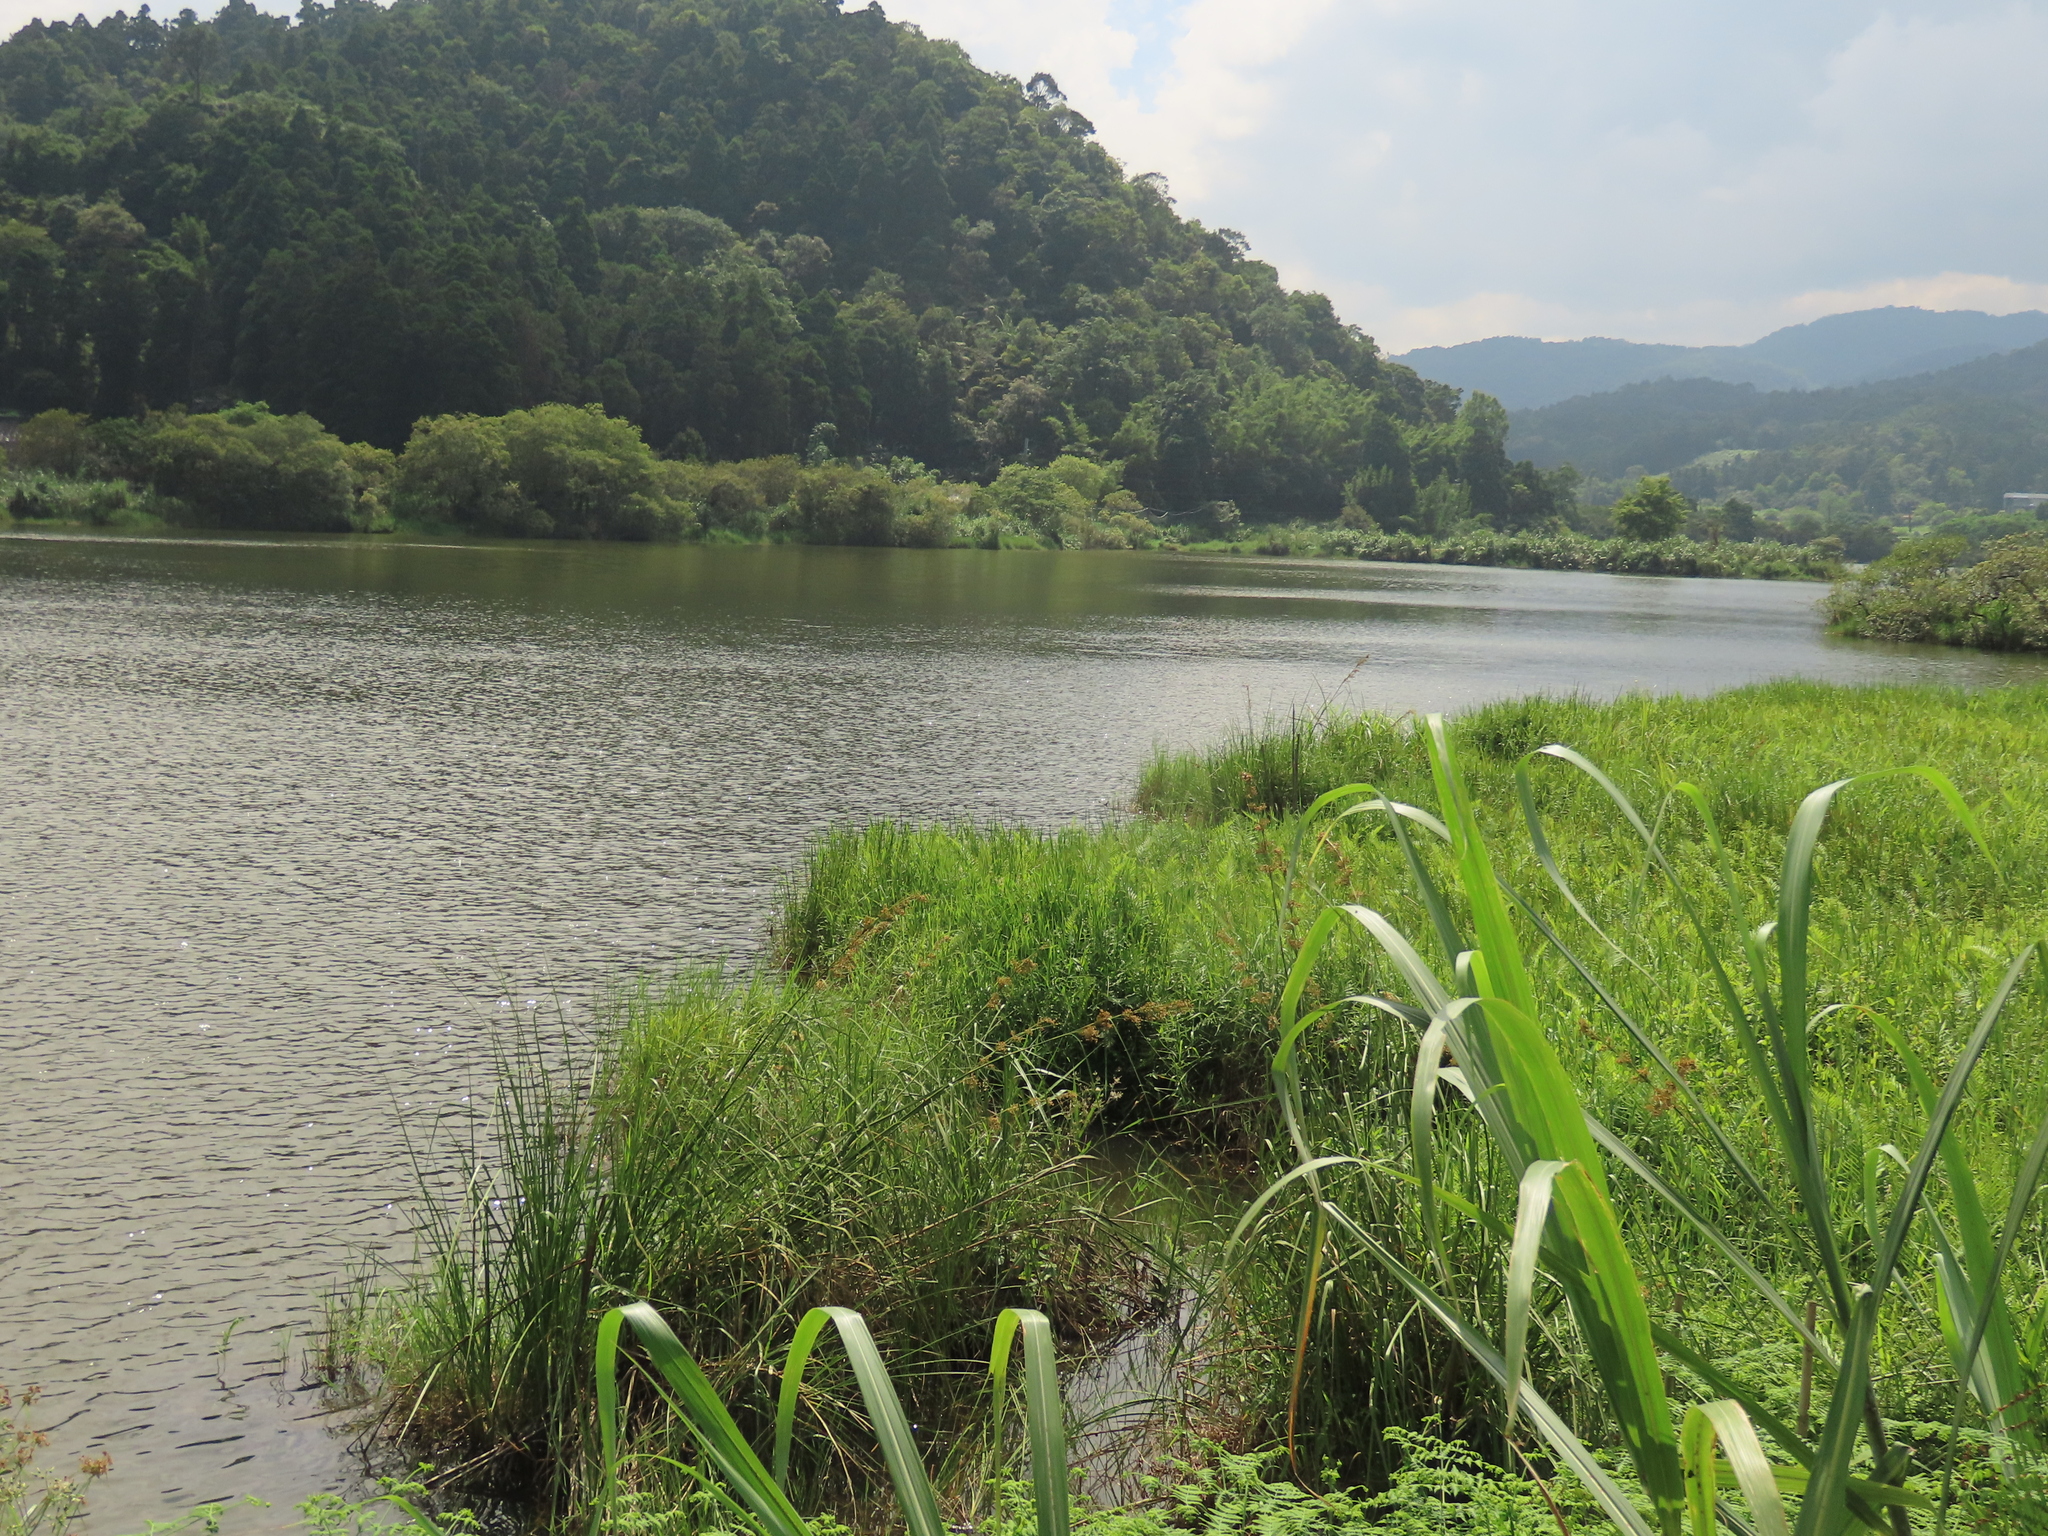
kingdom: Plantae
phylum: Tracheophyta
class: Liliopsida
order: Poales
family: Cyperaceae
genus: Cladium
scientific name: Cladium mariscus
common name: Great fen-sedge
